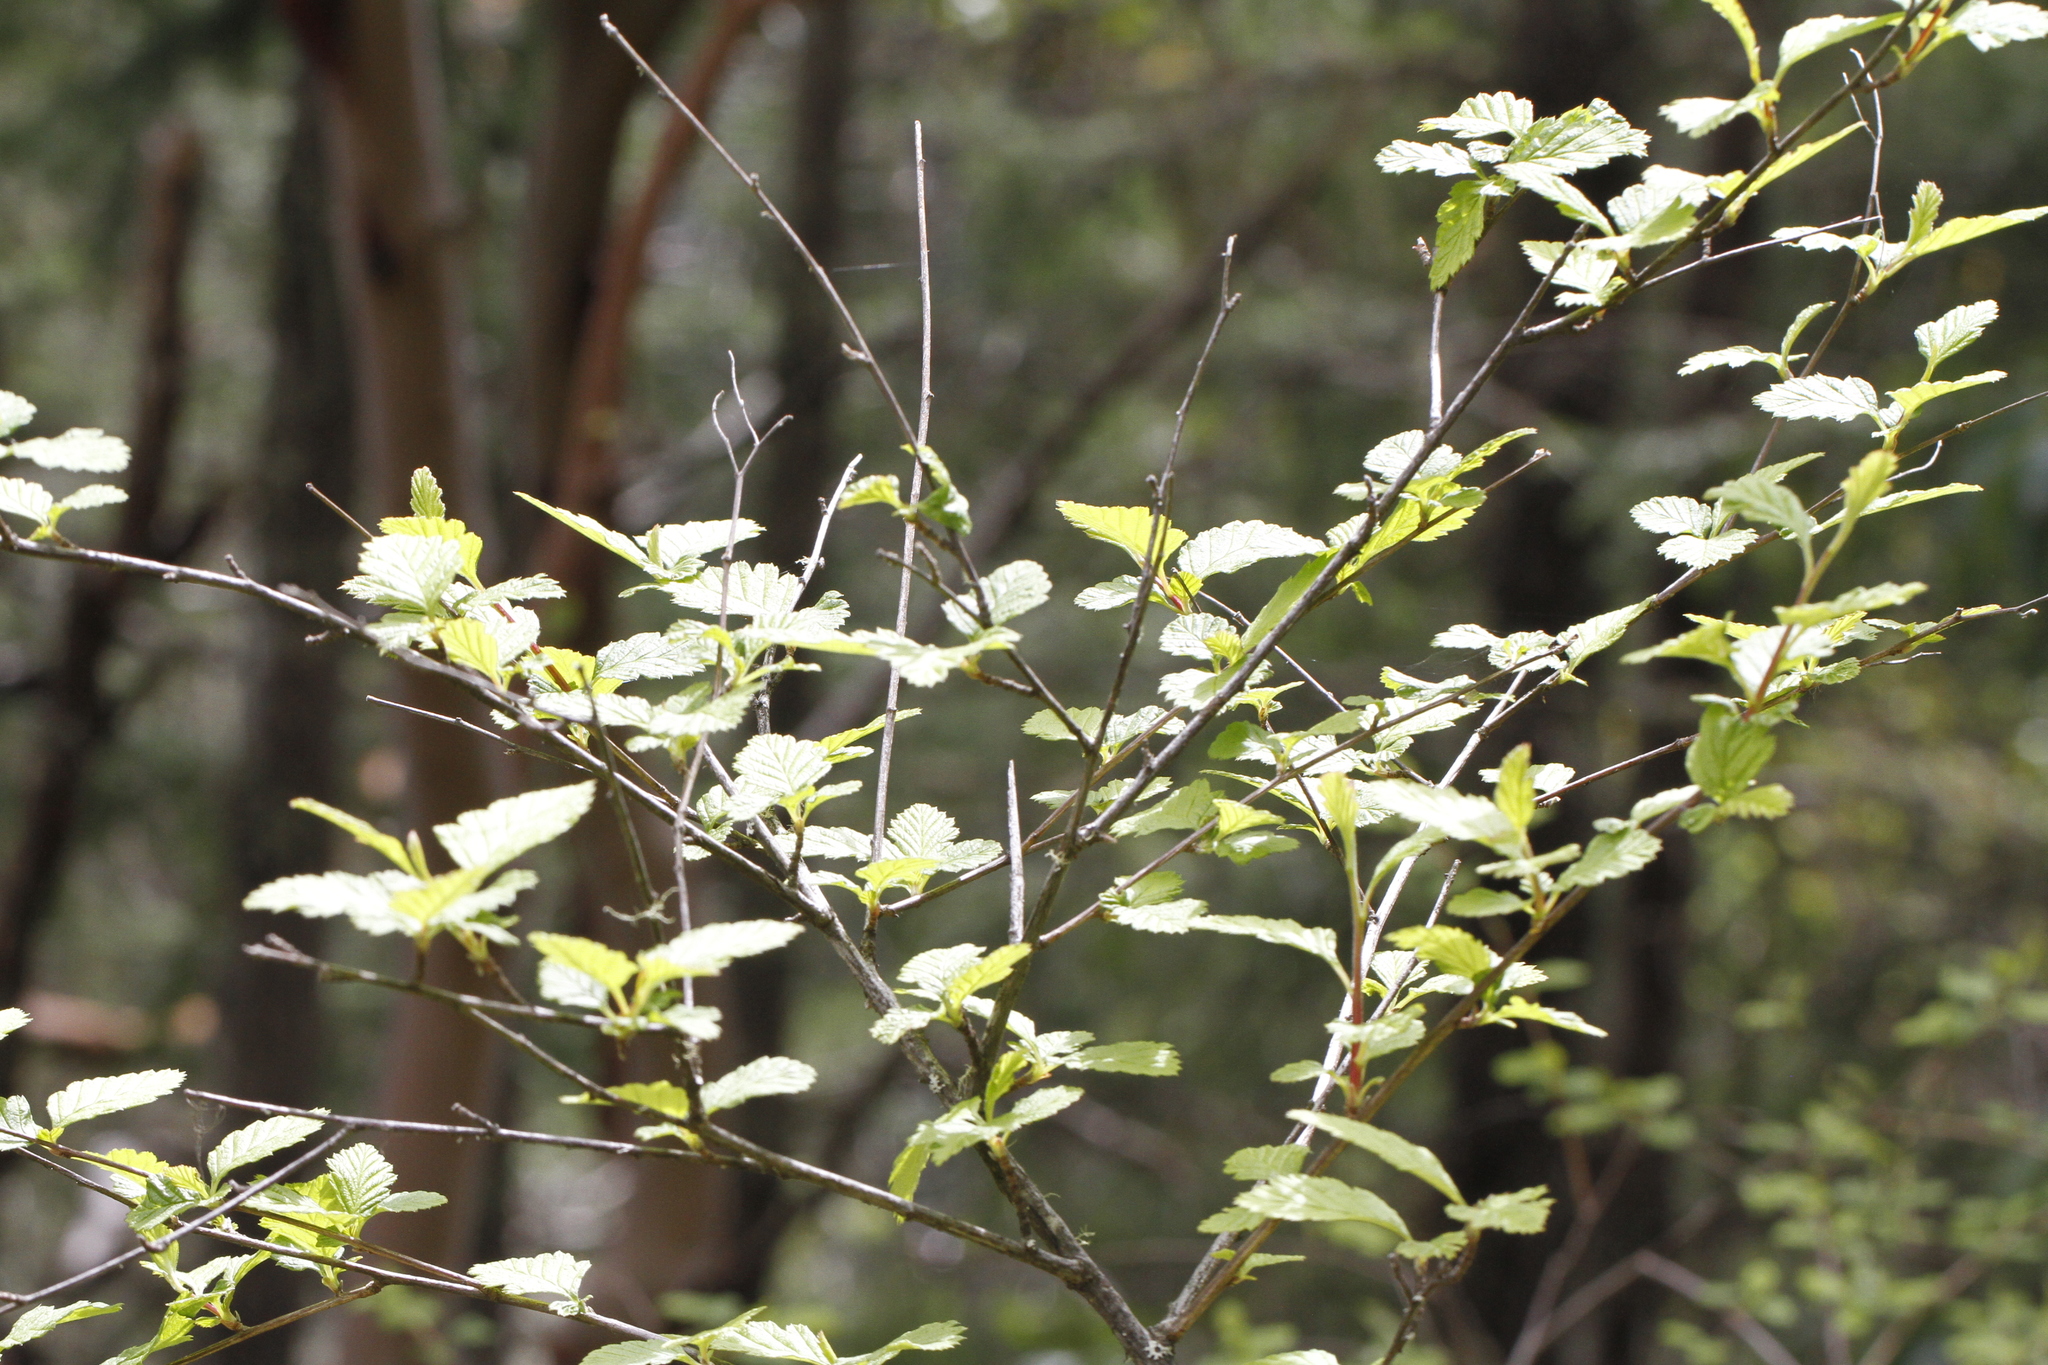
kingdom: Plantae
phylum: Tracheophyta
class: Magnoliopsida
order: Rosales
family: Rosaceae
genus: Holodiscus
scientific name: Holodiscus discolor
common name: Oceanspray
